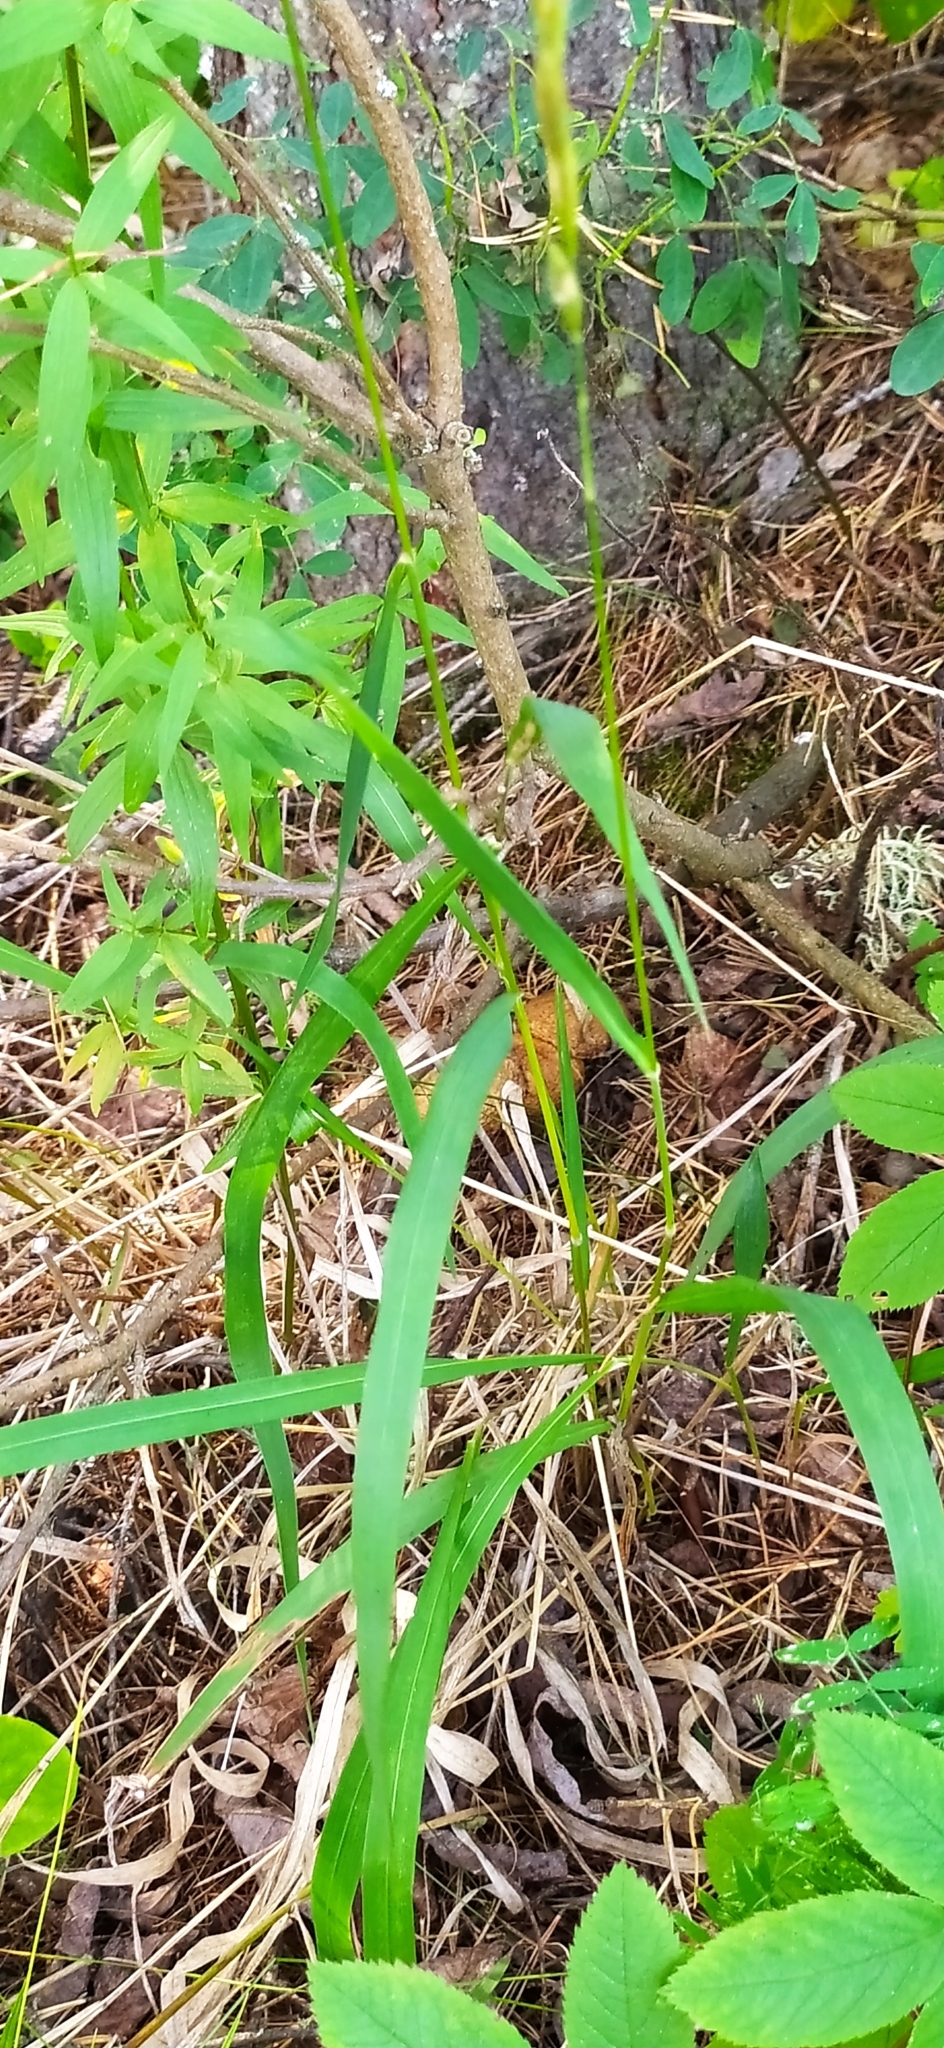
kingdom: Plantae
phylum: Tracheophyta
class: Liliopsida
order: Poales
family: Poaceae
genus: Brachypodium
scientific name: Brachypodium pinnatum
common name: Tor grass
